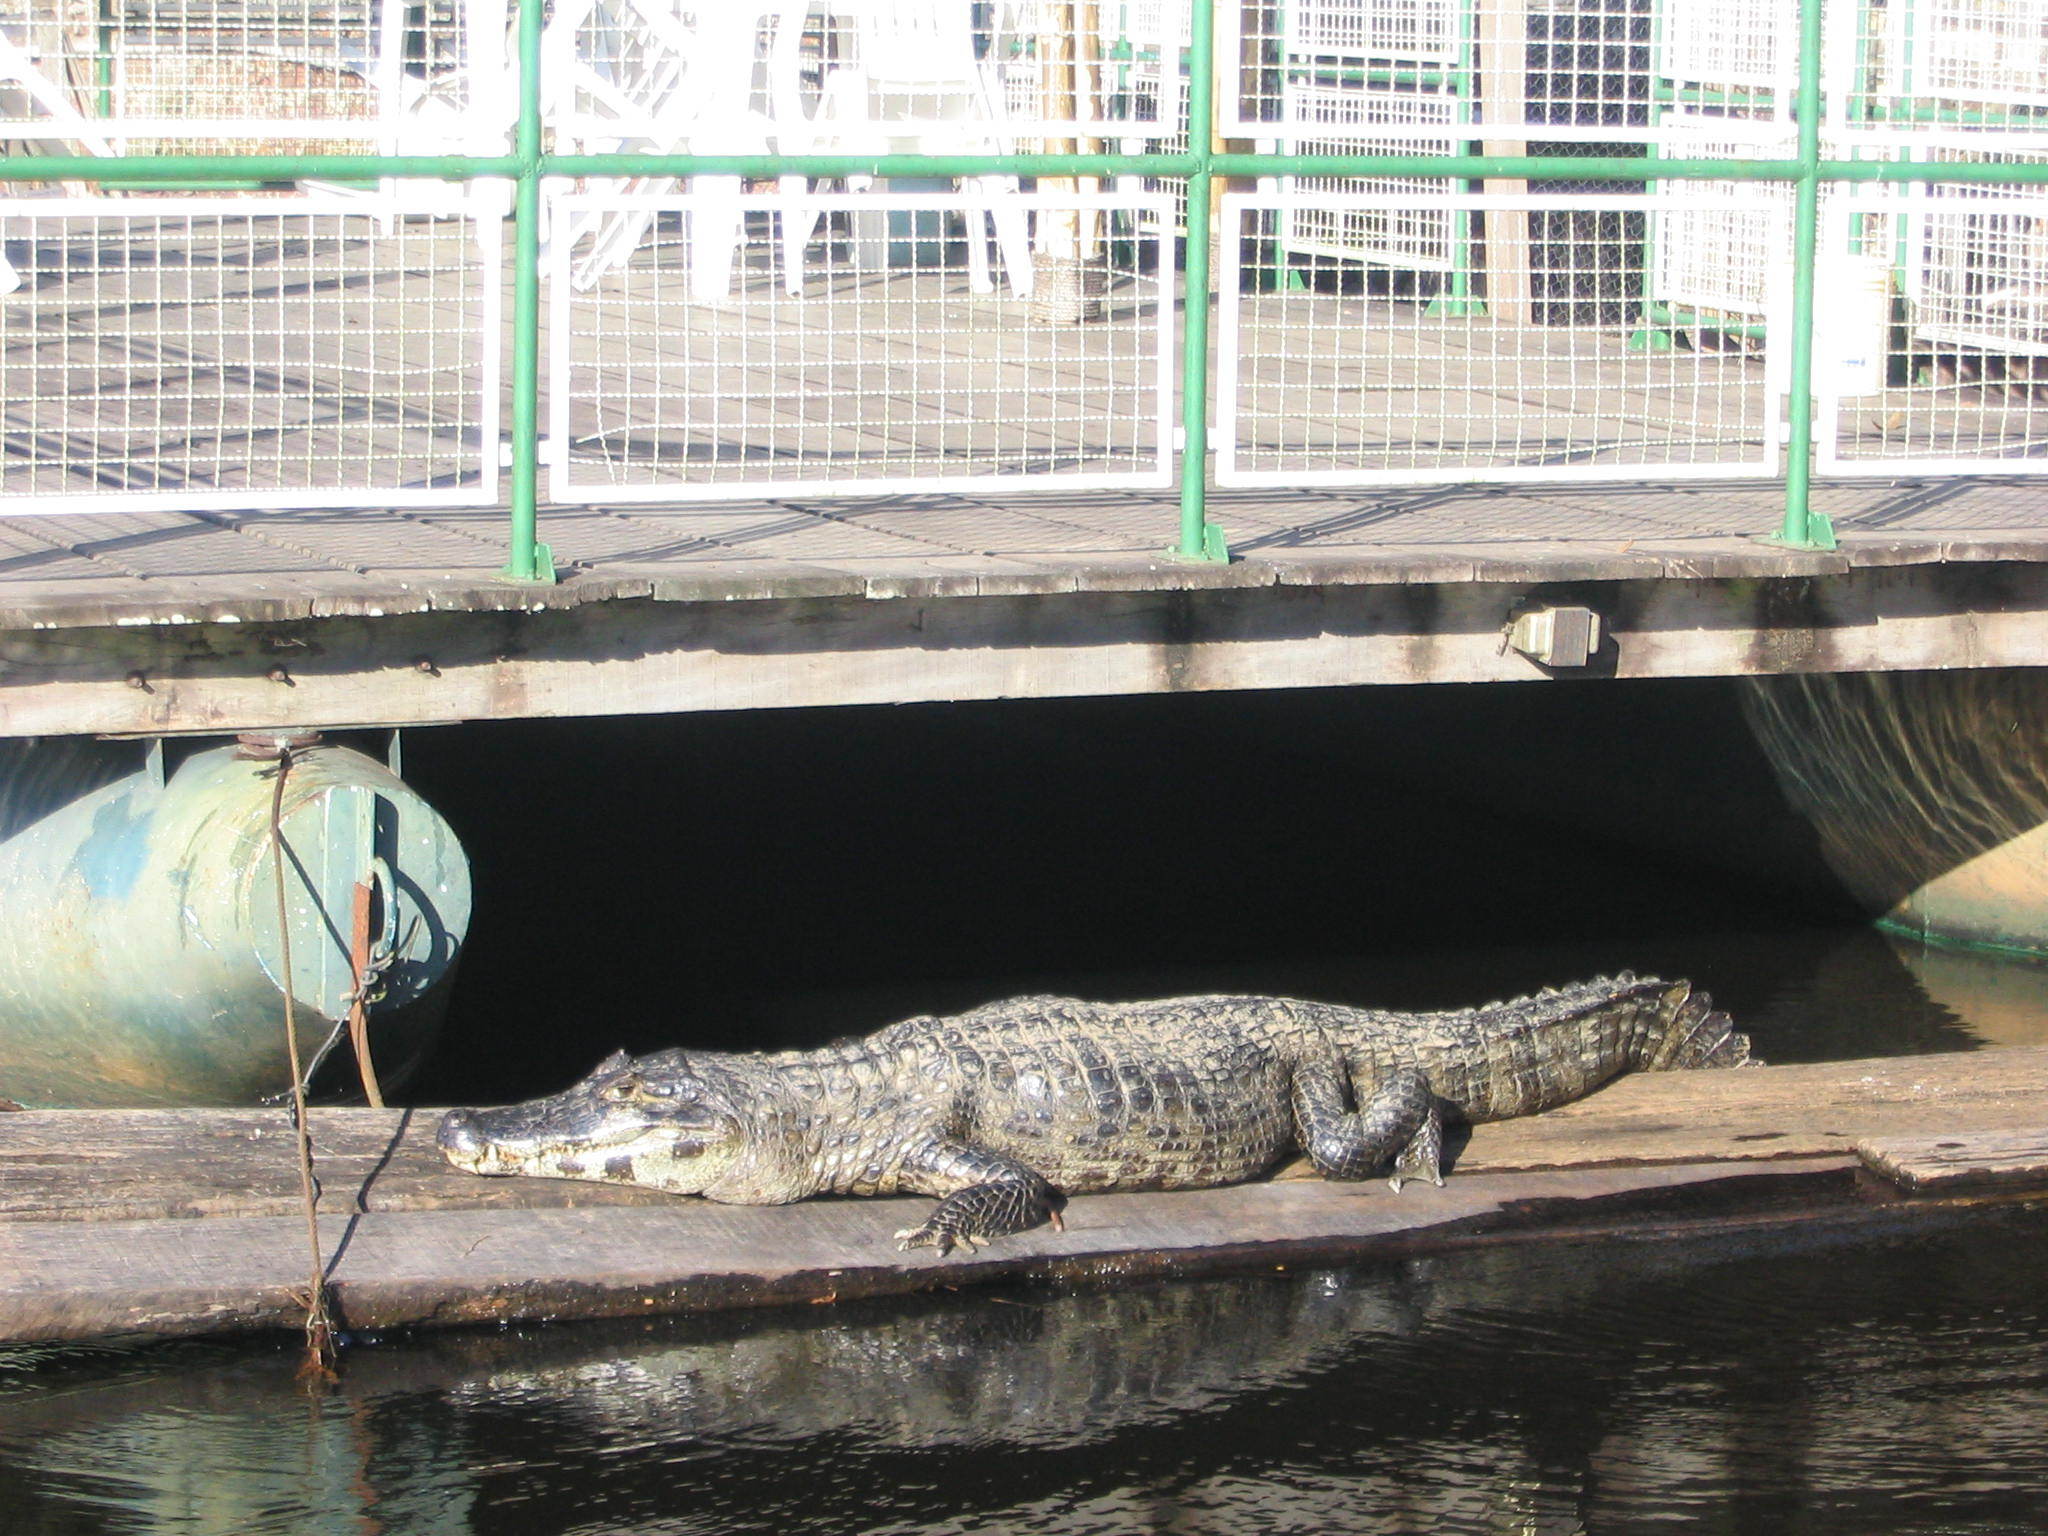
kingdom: Animalia
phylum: Chordata
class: Crocodylia
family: Alligatoridae
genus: Caiman
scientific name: Caiman yacare
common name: Yacare caiman
